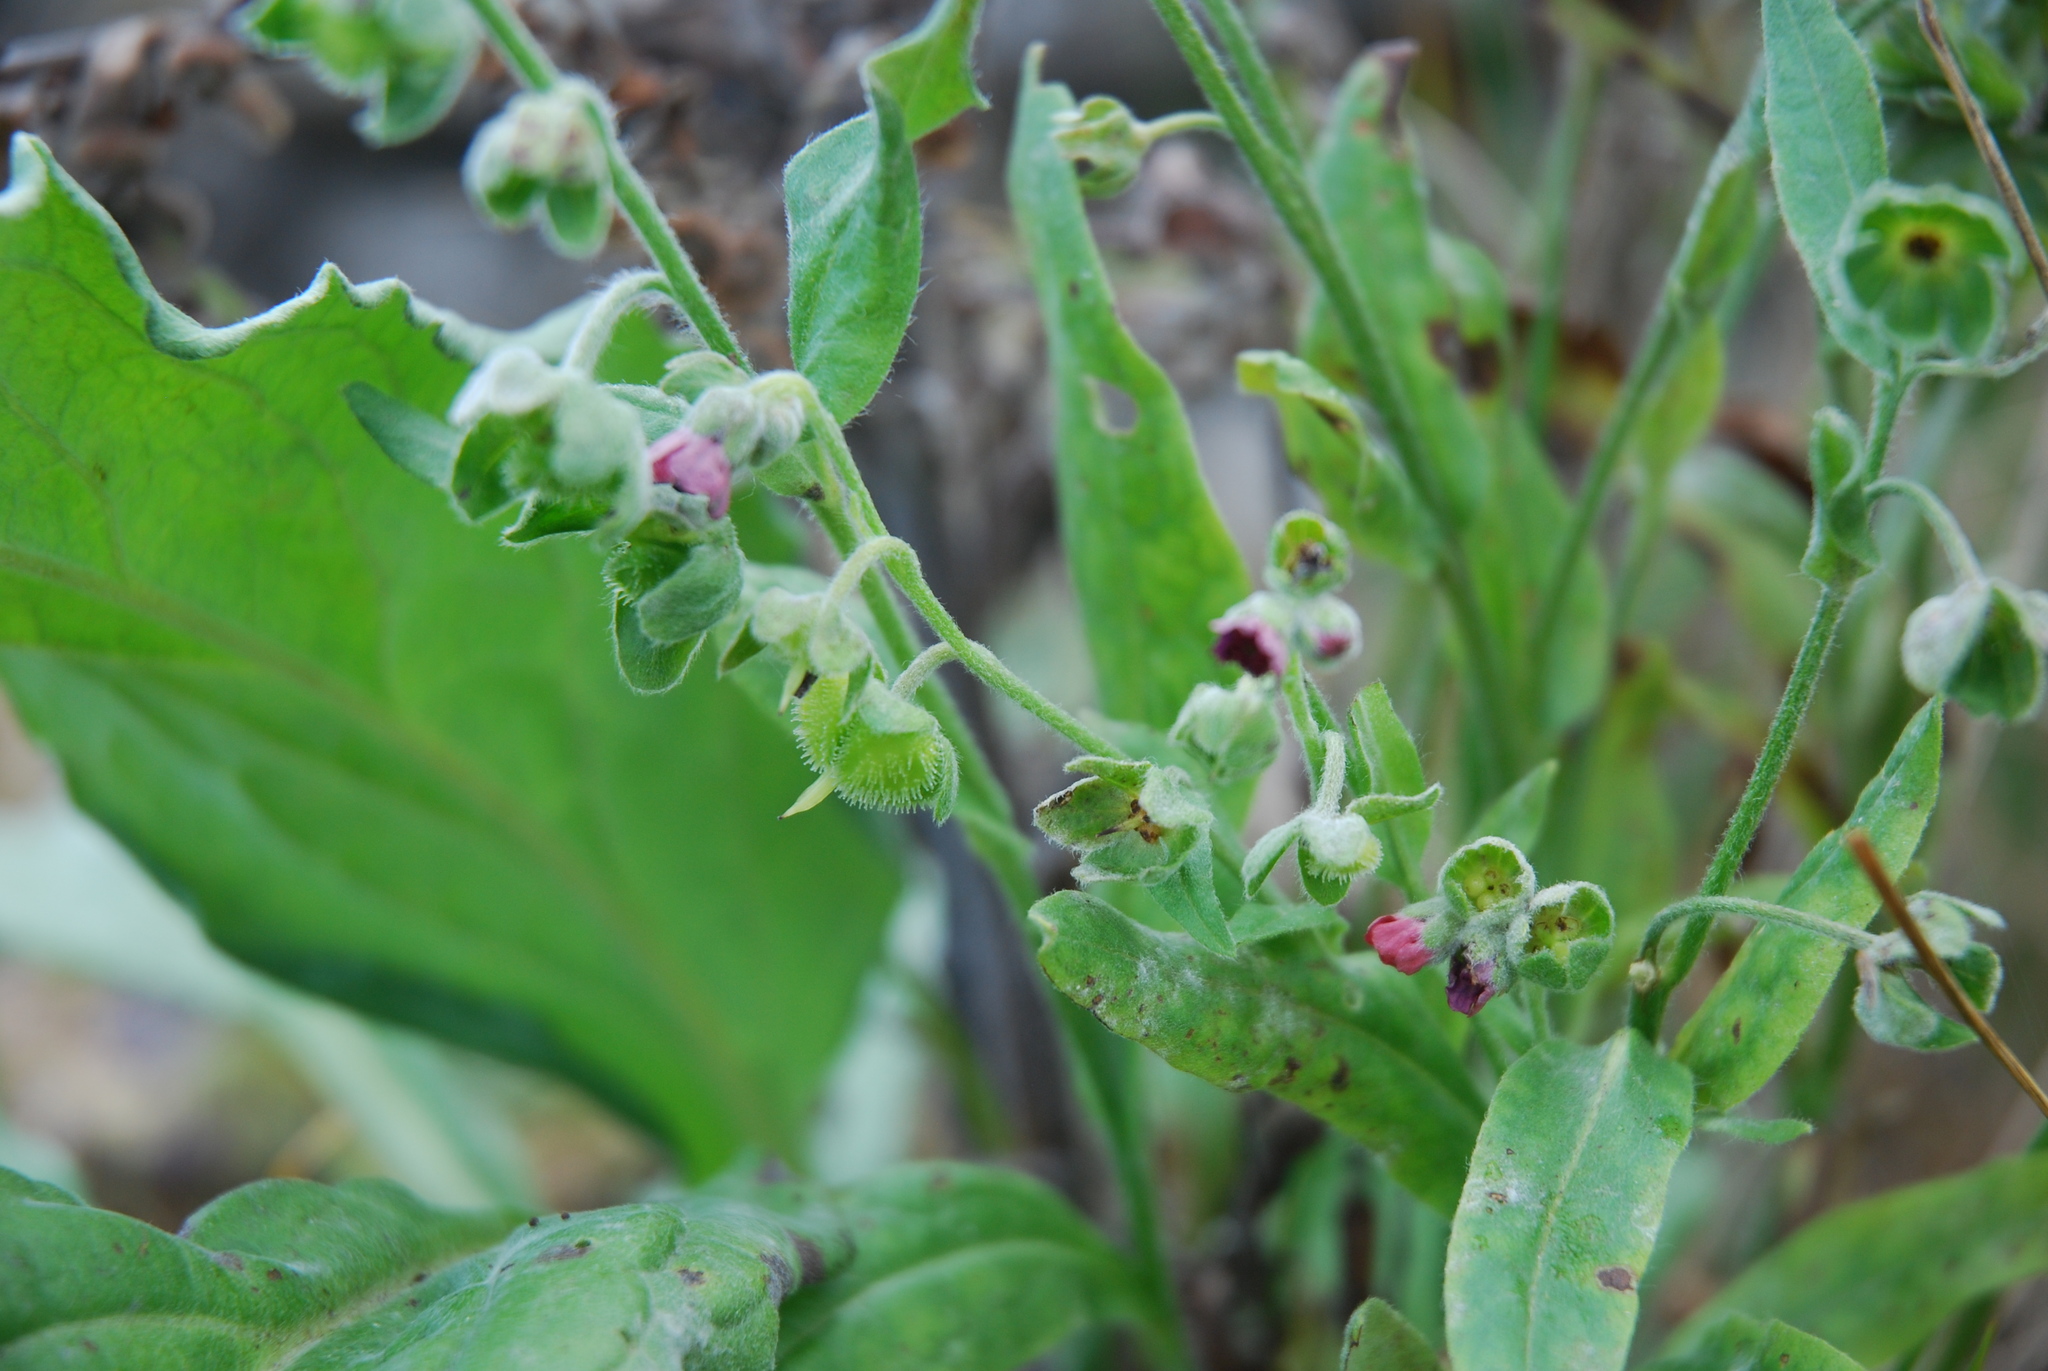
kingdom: Plantae
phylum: Tracheophyta
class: Magnoliopsida
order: Boraginales
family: Boraginaceae
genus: Cynoglossum
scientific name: Cynoglossum officinale
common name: Hound's-tongue
